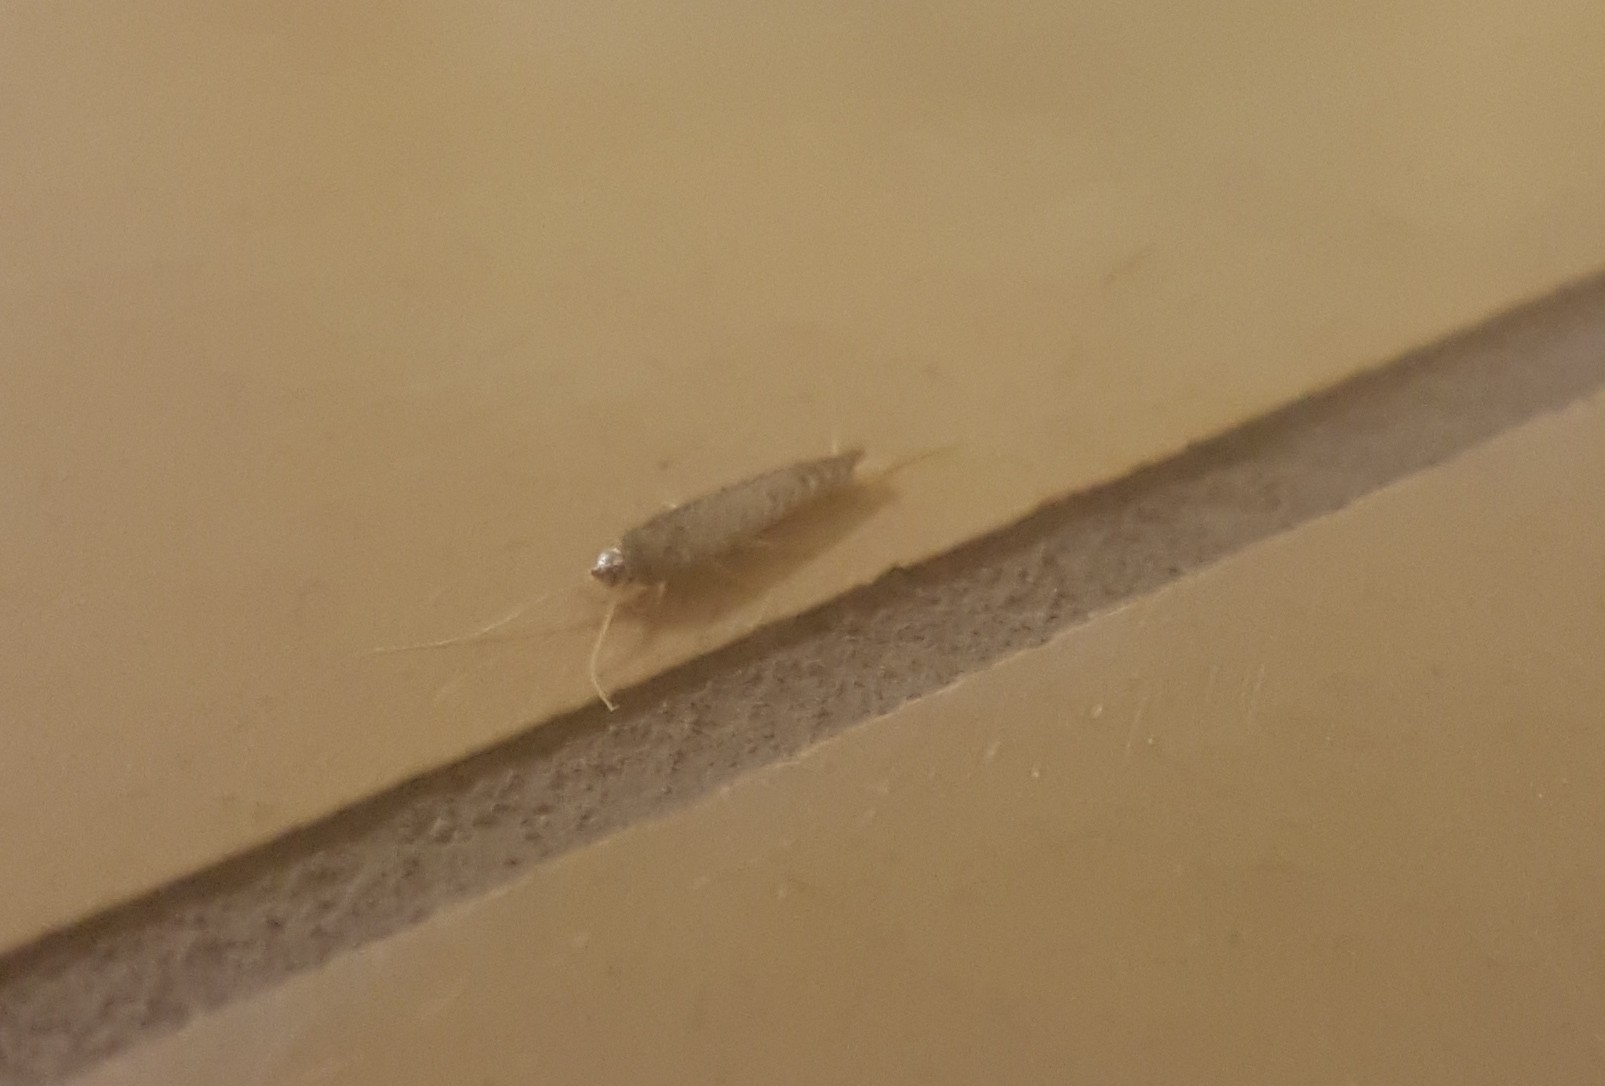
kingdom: Animalia
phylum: Arthropoda
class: Insecta
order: Zygentoma
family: Lepismatidae
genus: Lepisma
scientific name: Lepisma saccharinum
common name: Silverfish
